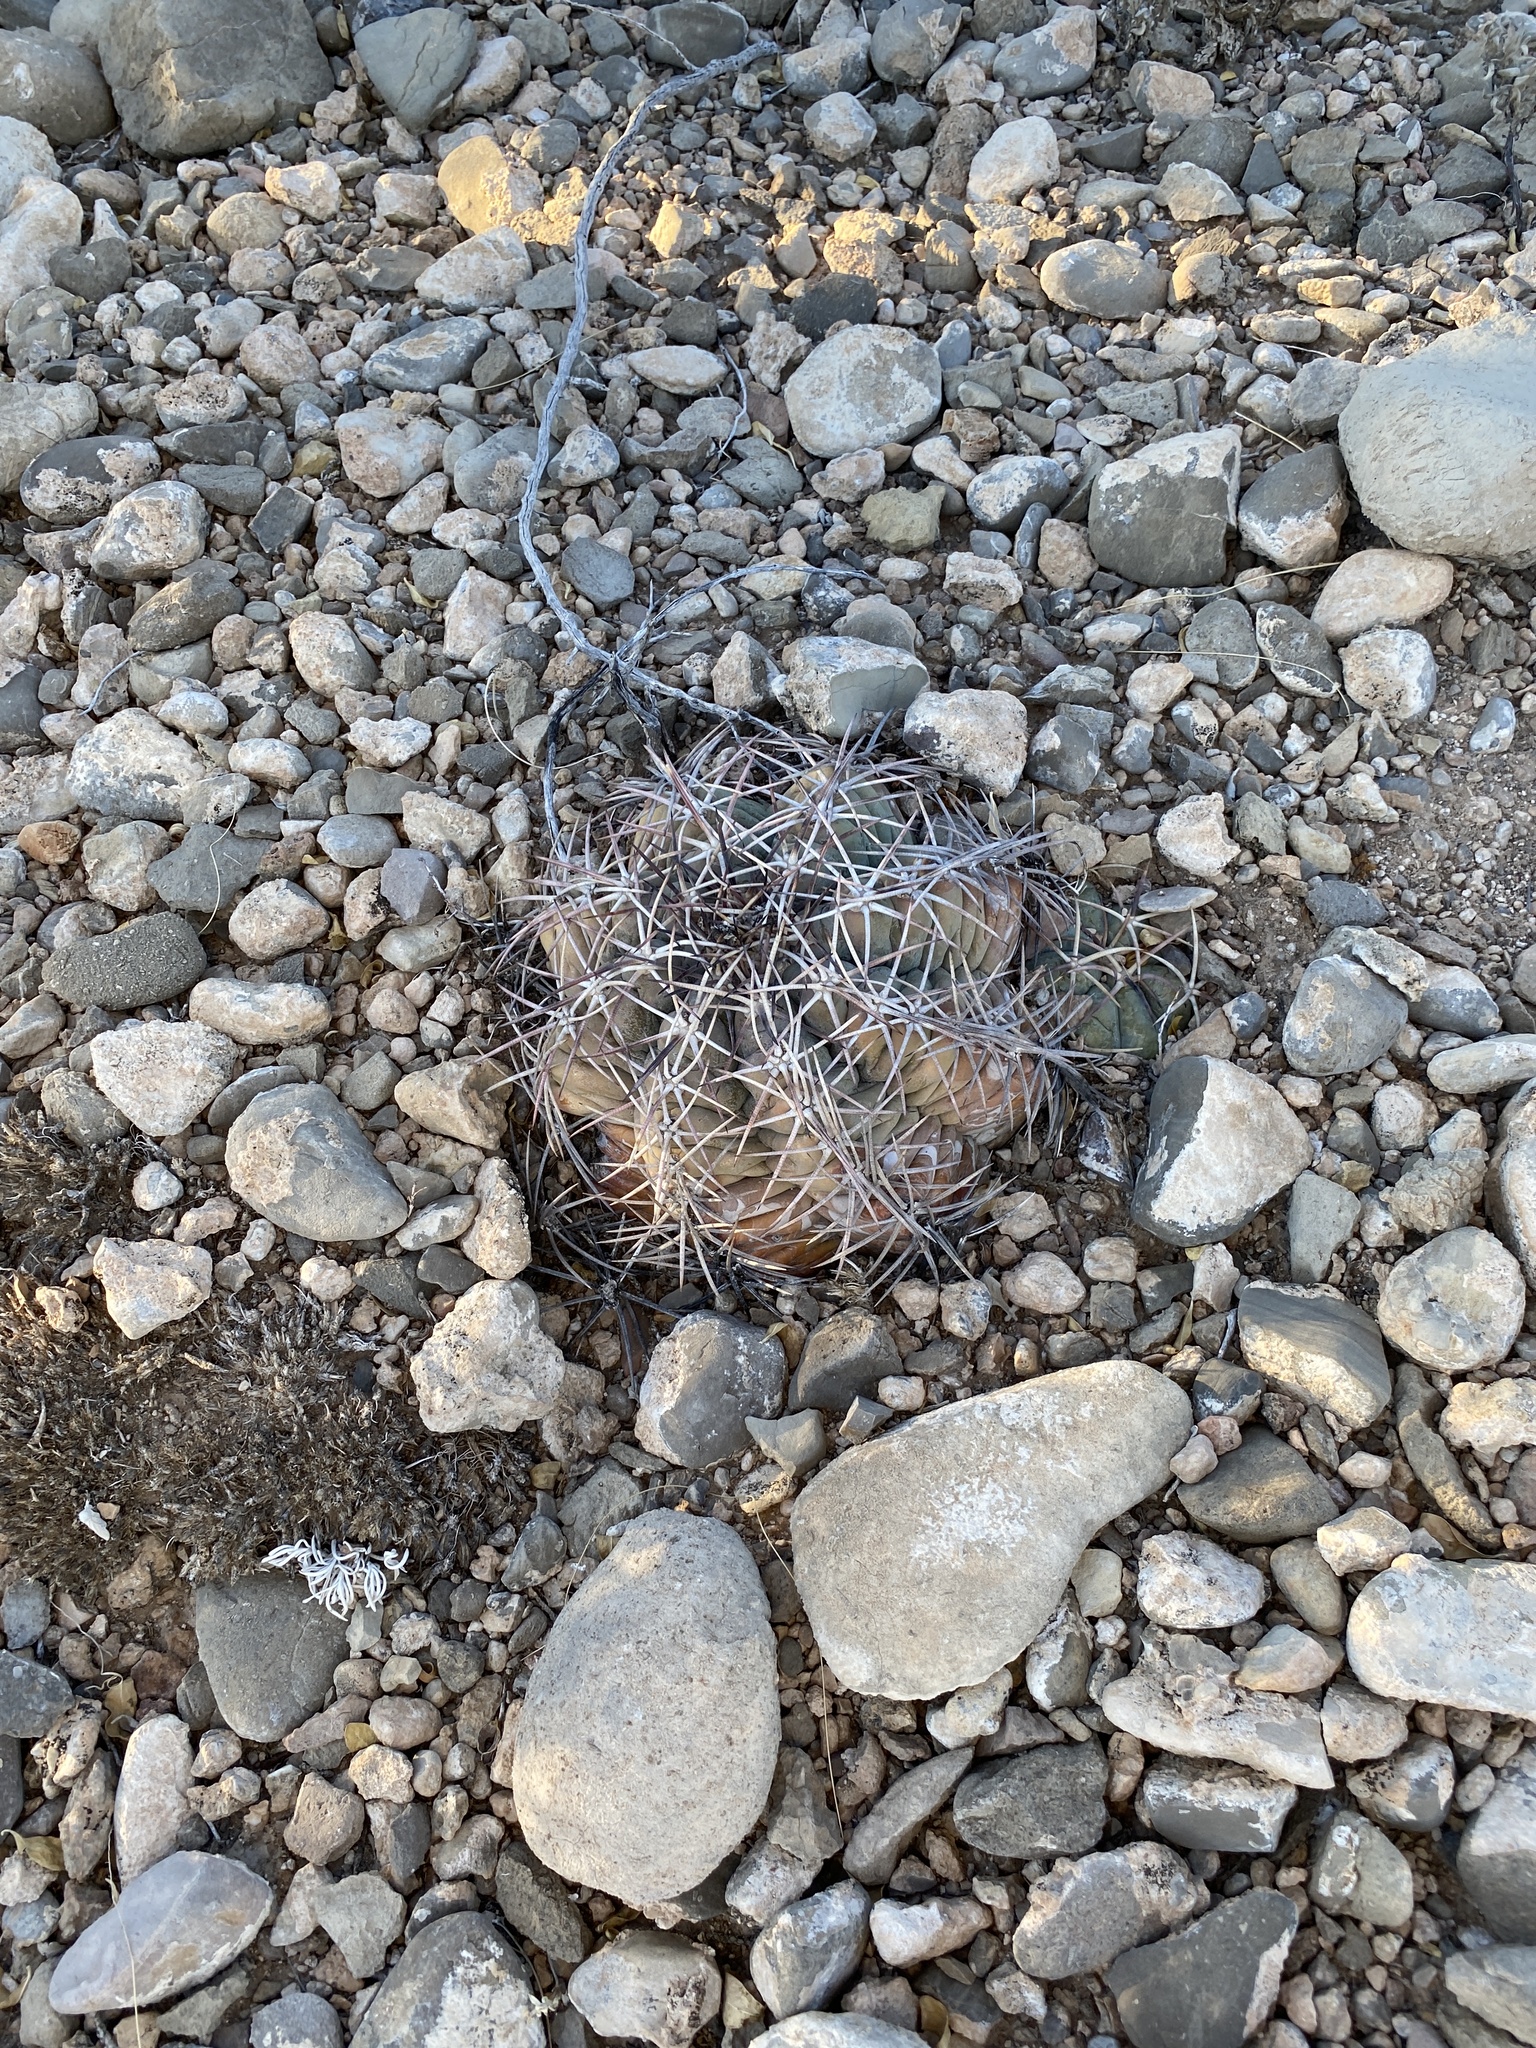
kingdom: Plantae
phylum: Tracheophyta
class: Magnoliopsida
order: Caryophyllales
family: Cactaceae
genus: Echinocactus
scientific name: Echinocactus horizonthalonius
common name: Devilshead
